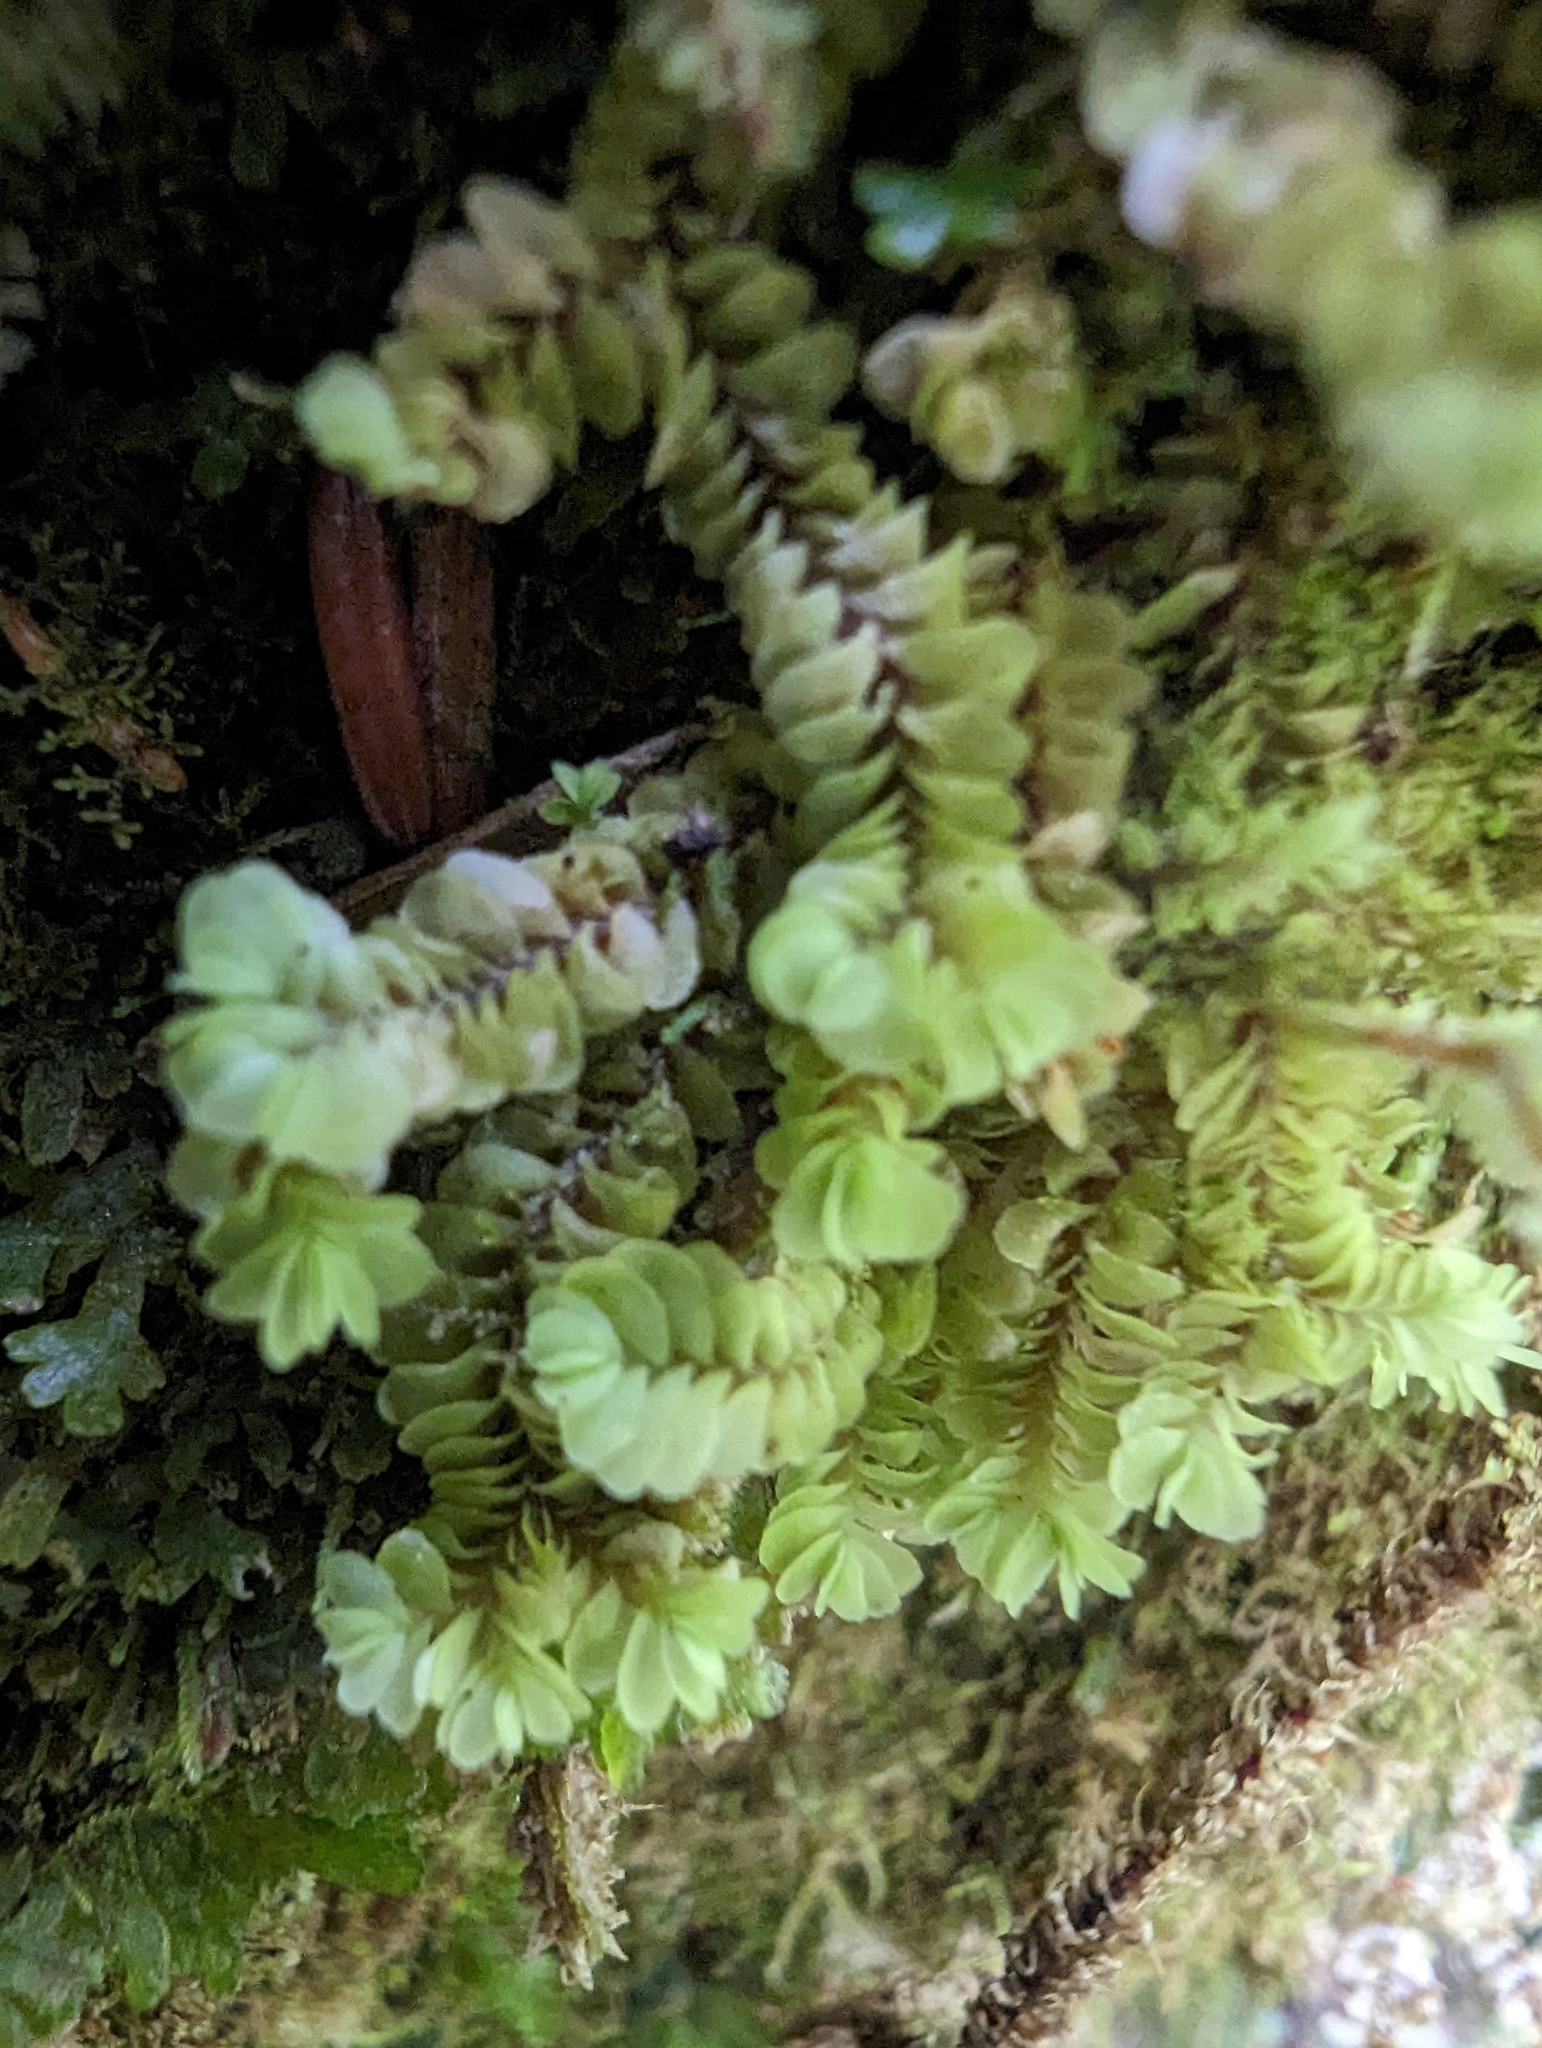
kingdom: Plantae
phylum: Marchantiophyta
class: Jungermanniopsida
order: Jungermanniales
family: Myliaceae
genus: Mylia
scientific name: Mylia taylorii
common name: Taylor s flapwort
